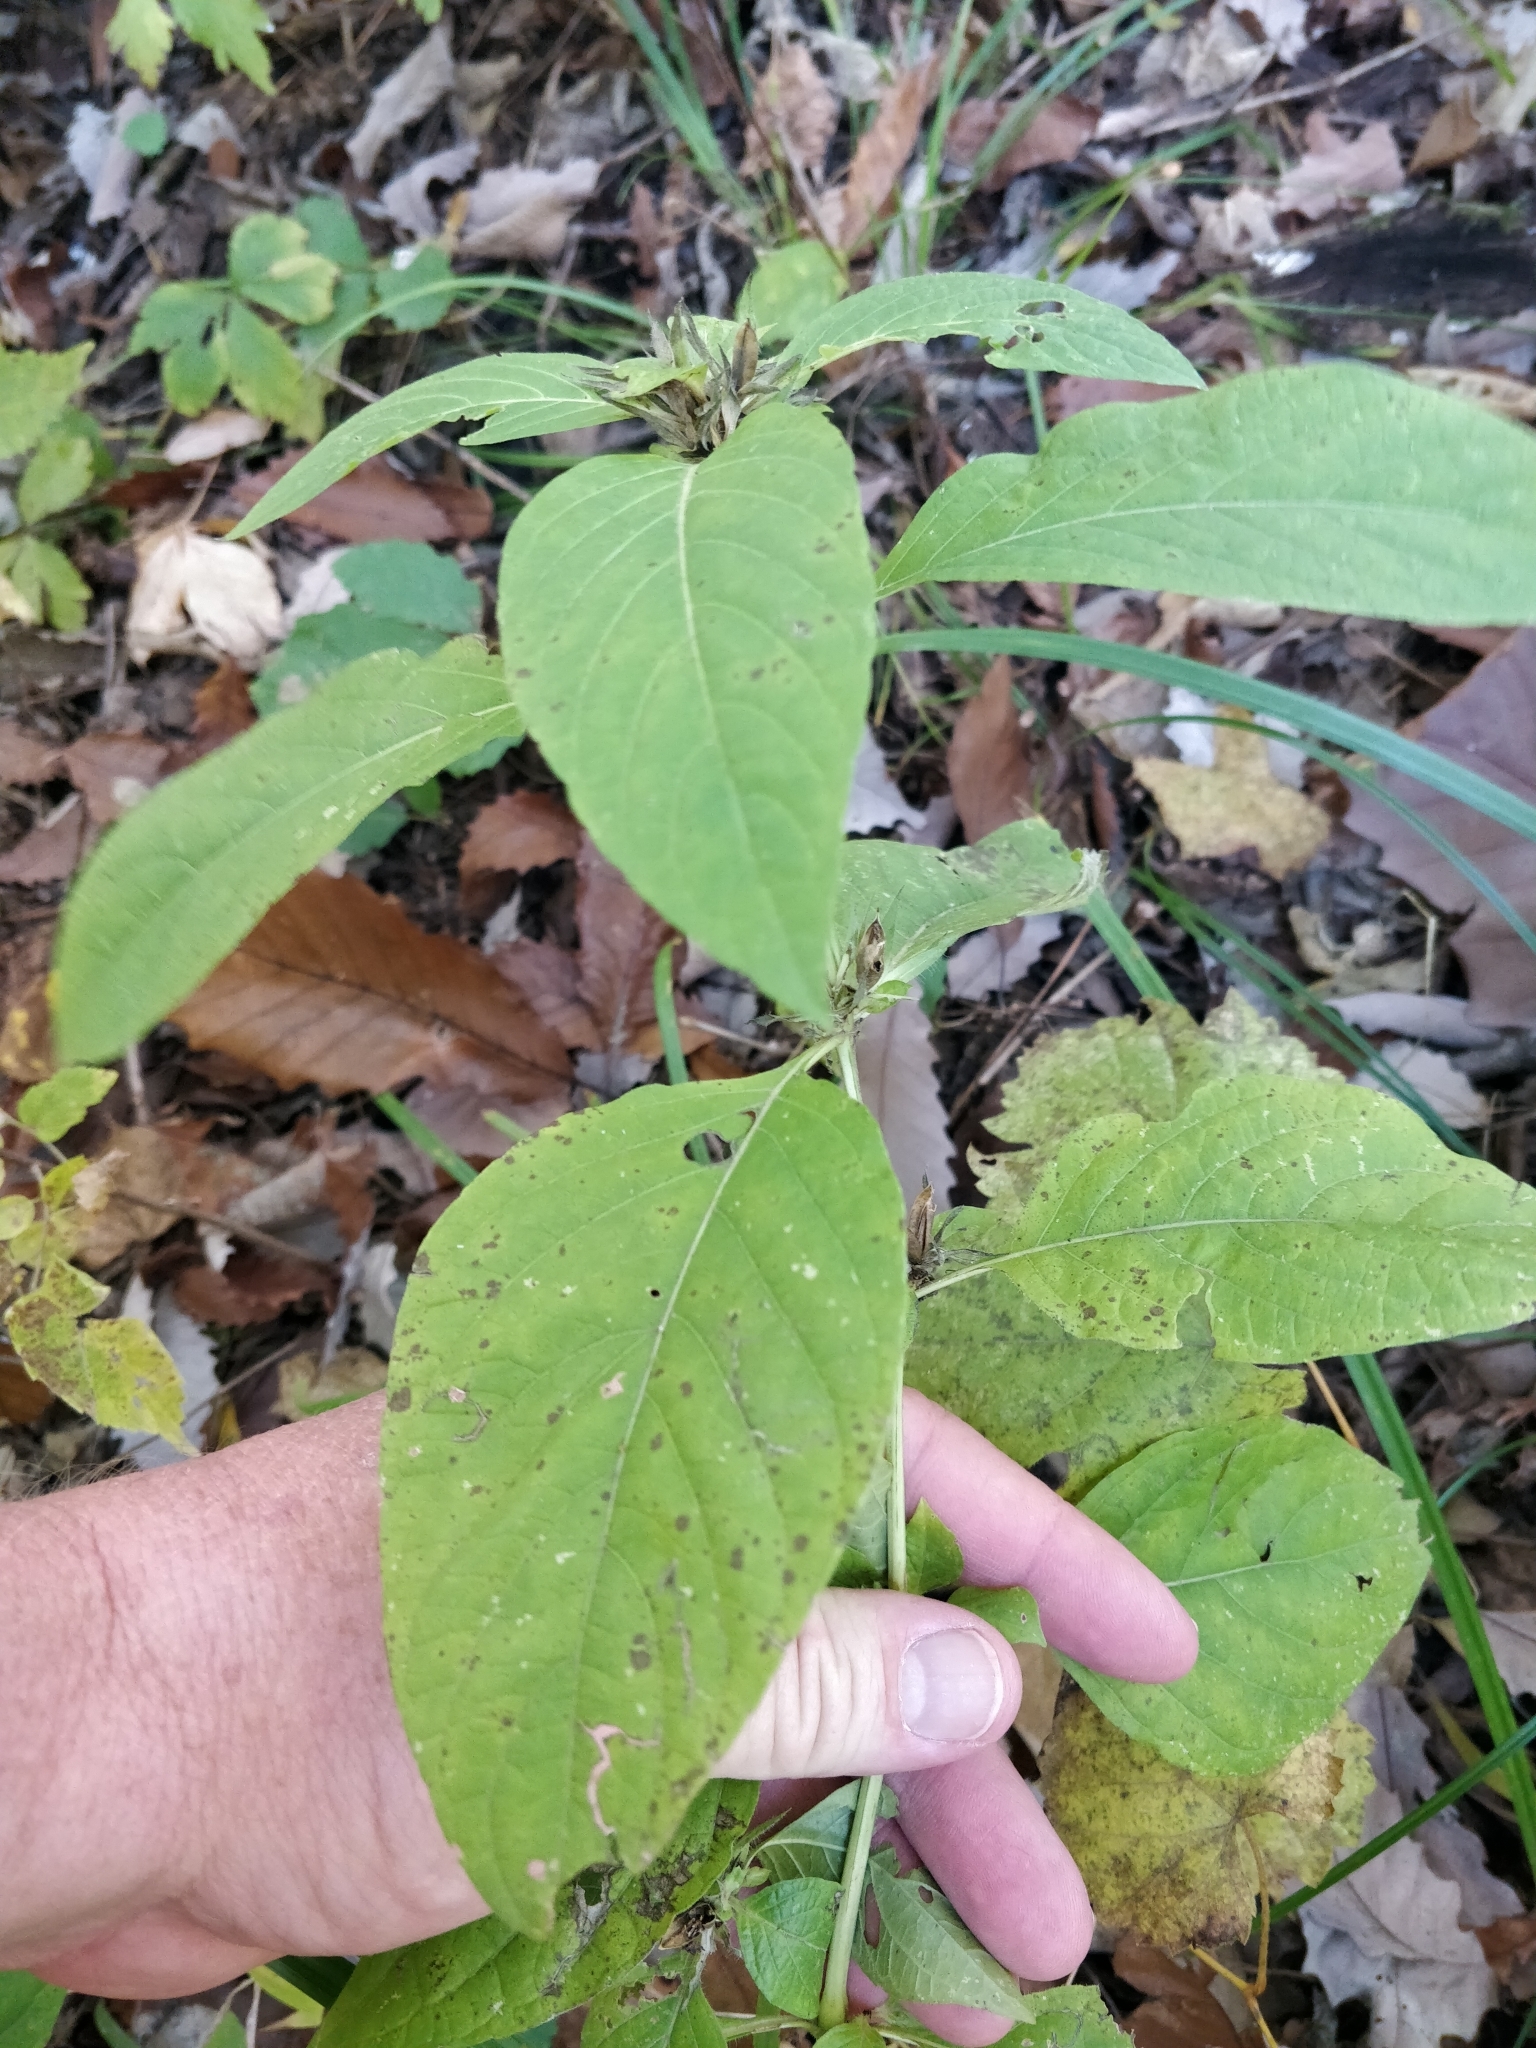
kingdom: Plantae
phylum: Tracheophyta
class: Magnoliopsida
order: Lamiales
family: Acanthaceae
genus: Ruellia
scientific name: Ruellia strepens
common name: Limestone wild petunia
